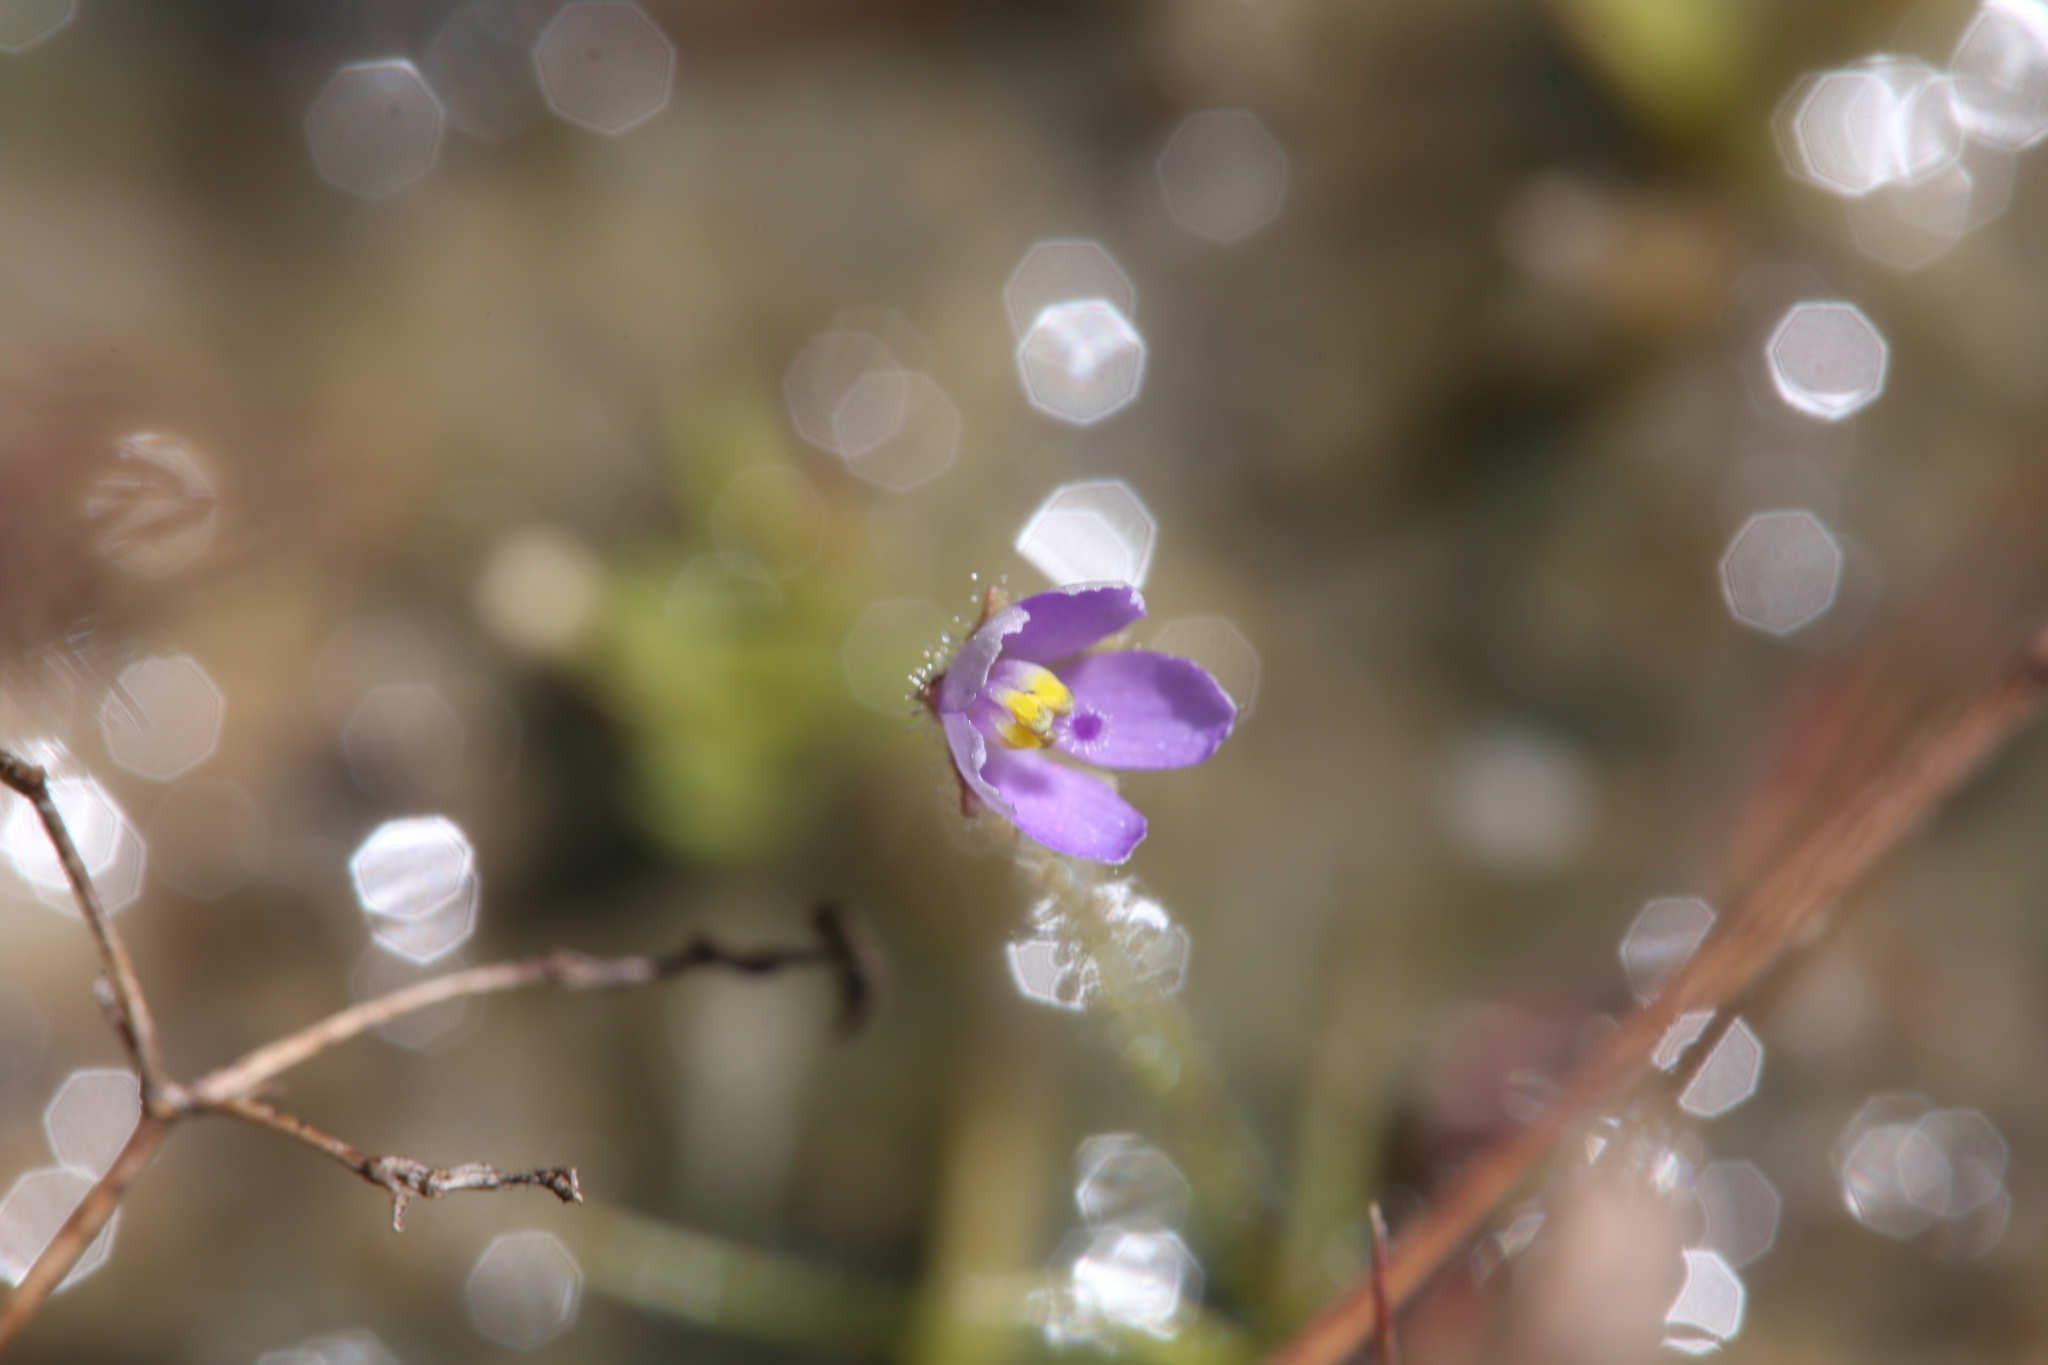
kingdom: Plantae
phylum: Tracheophyta
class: Magnoliopsida
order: Lamiales
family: Byblidaceae
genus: Byblis
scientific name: Byblis liniflora
